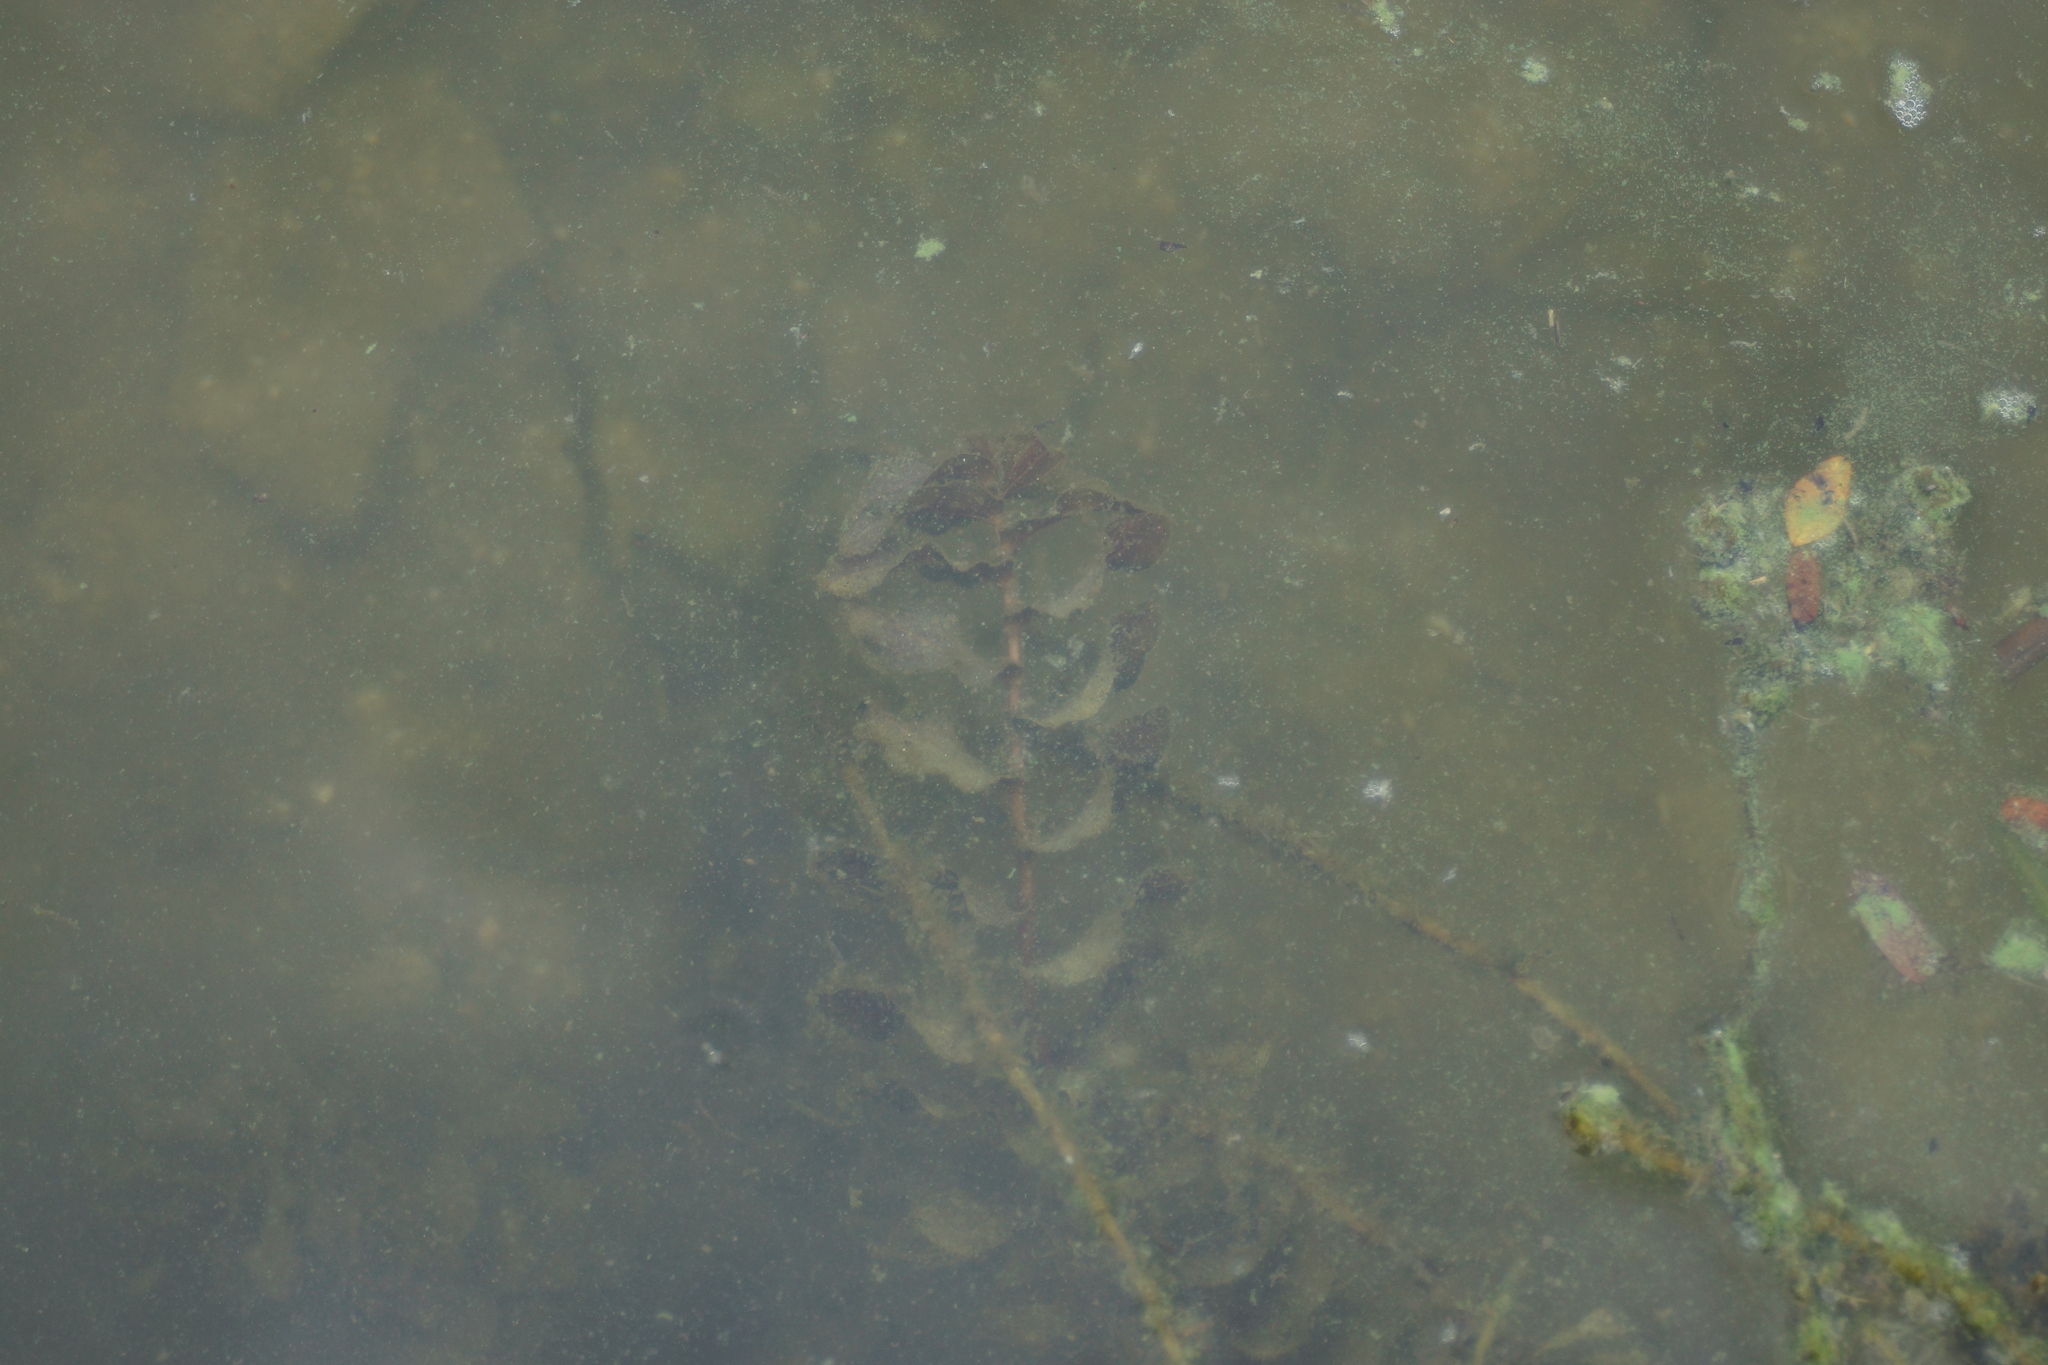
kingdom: Plantae
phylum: Tracheophyta
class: Liliopsida
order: Alismatales
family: Potamogetonaceae
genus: Potamogeton
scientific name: Potamogeton perfoliatus
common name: Perfoliate pondweed
